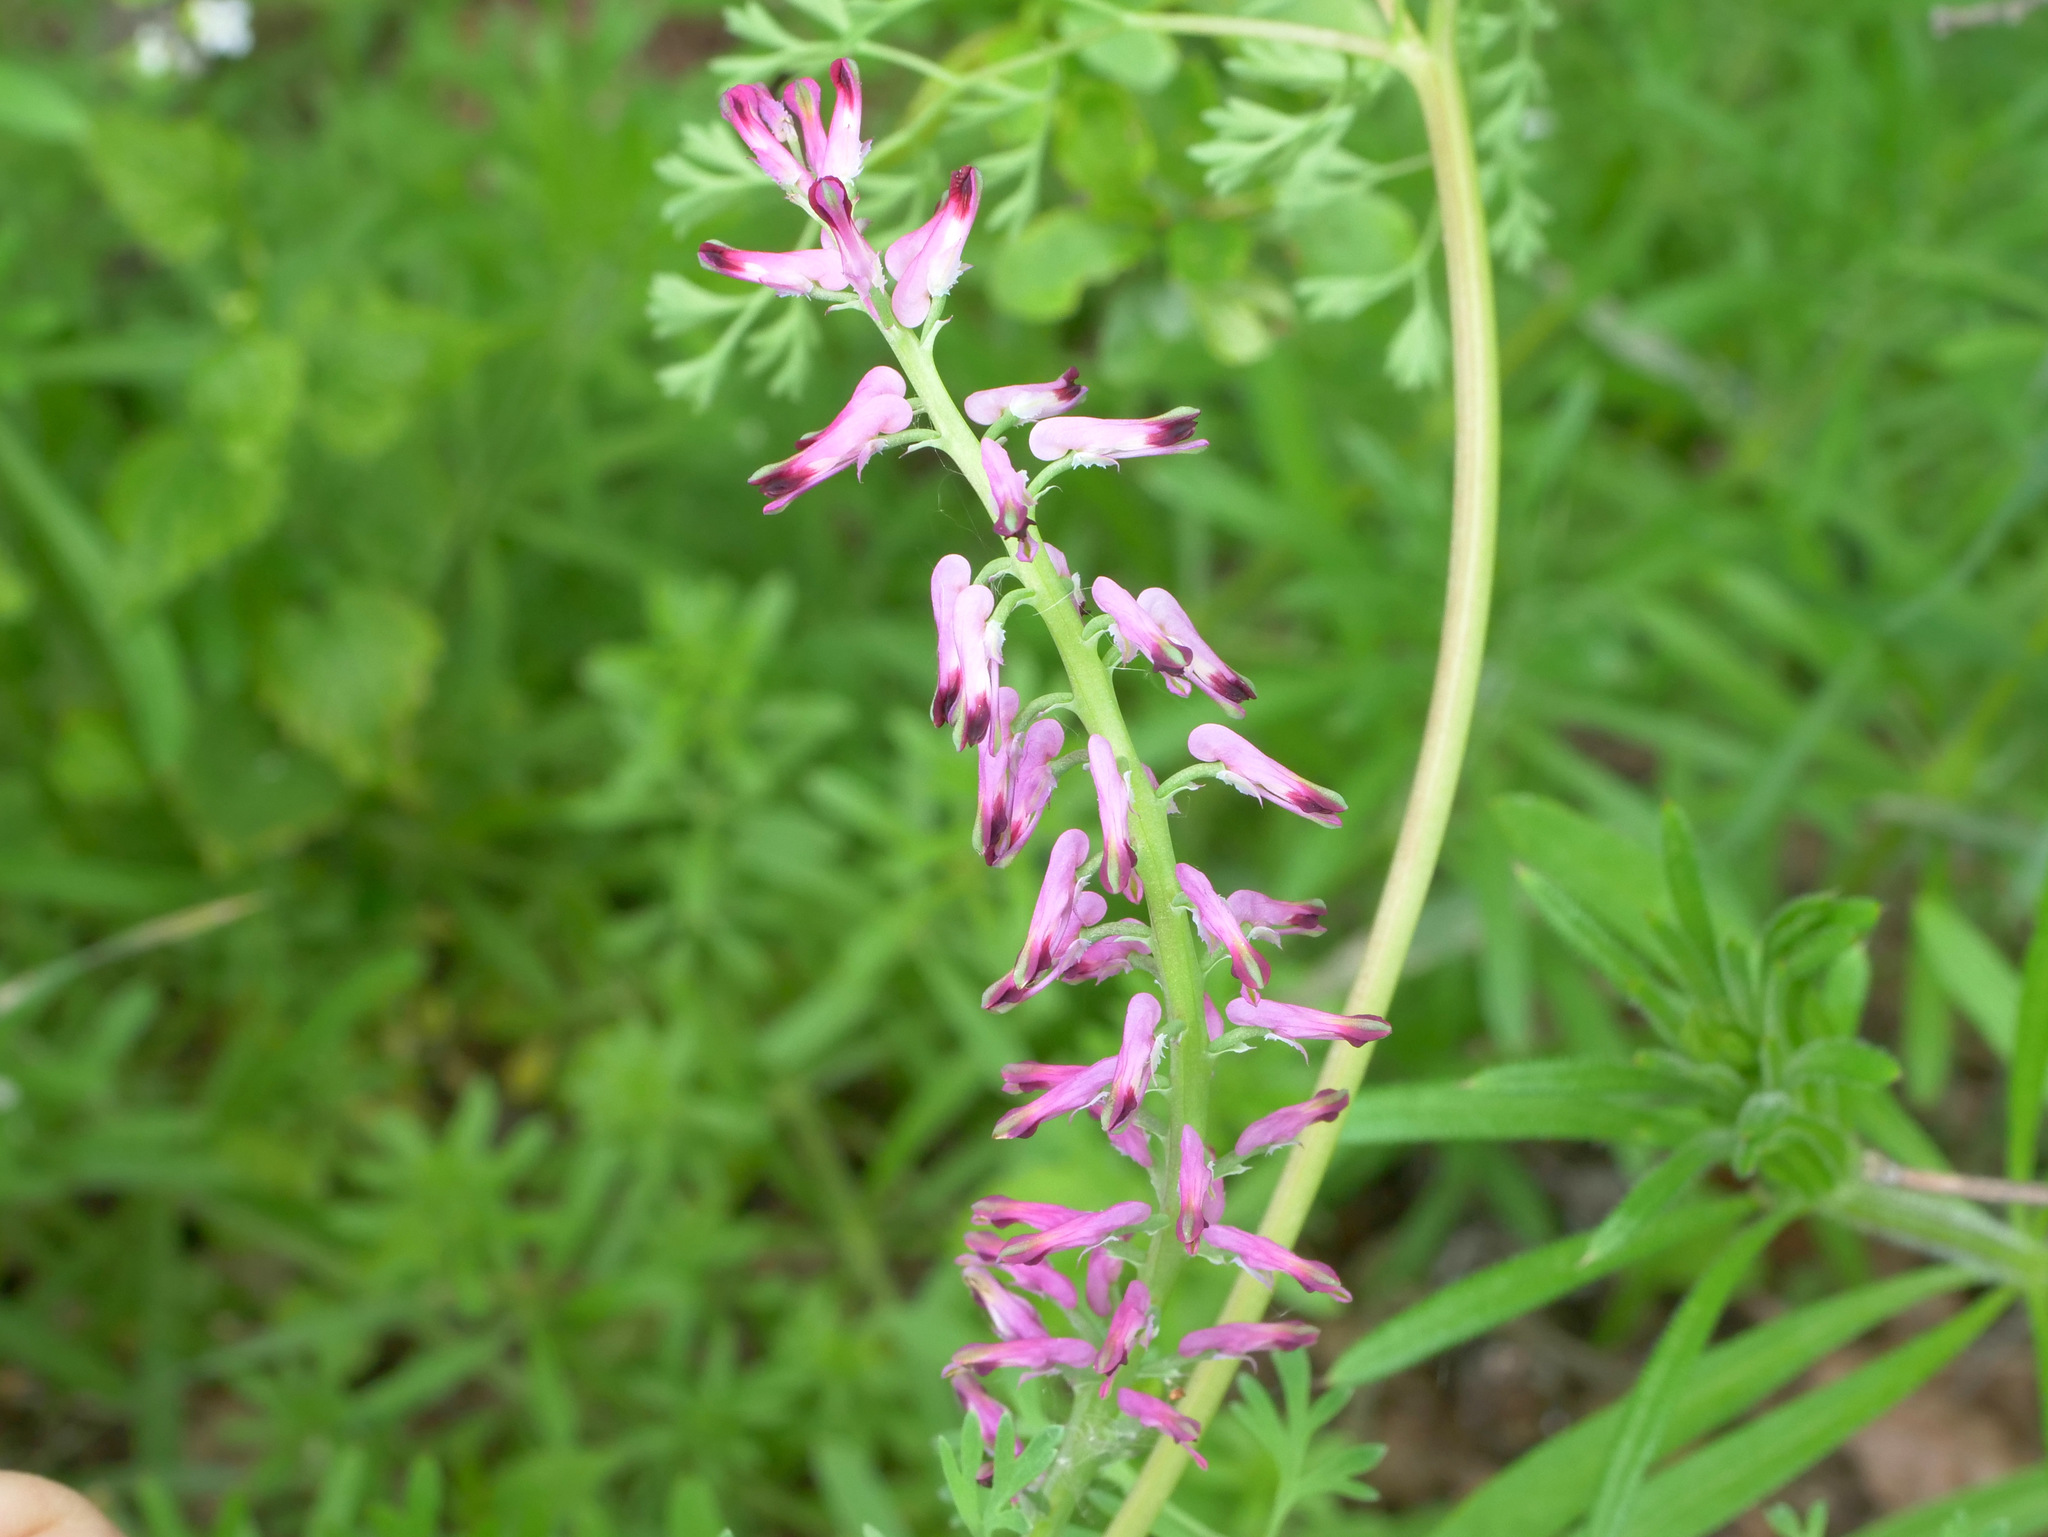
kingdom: Plantae
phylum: Tracheophyta
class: Magnoliopsida
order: Ranunculales
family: Papaveraceae
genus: Fumaria
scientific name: Fumaria officinalis
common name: Common fumitory
